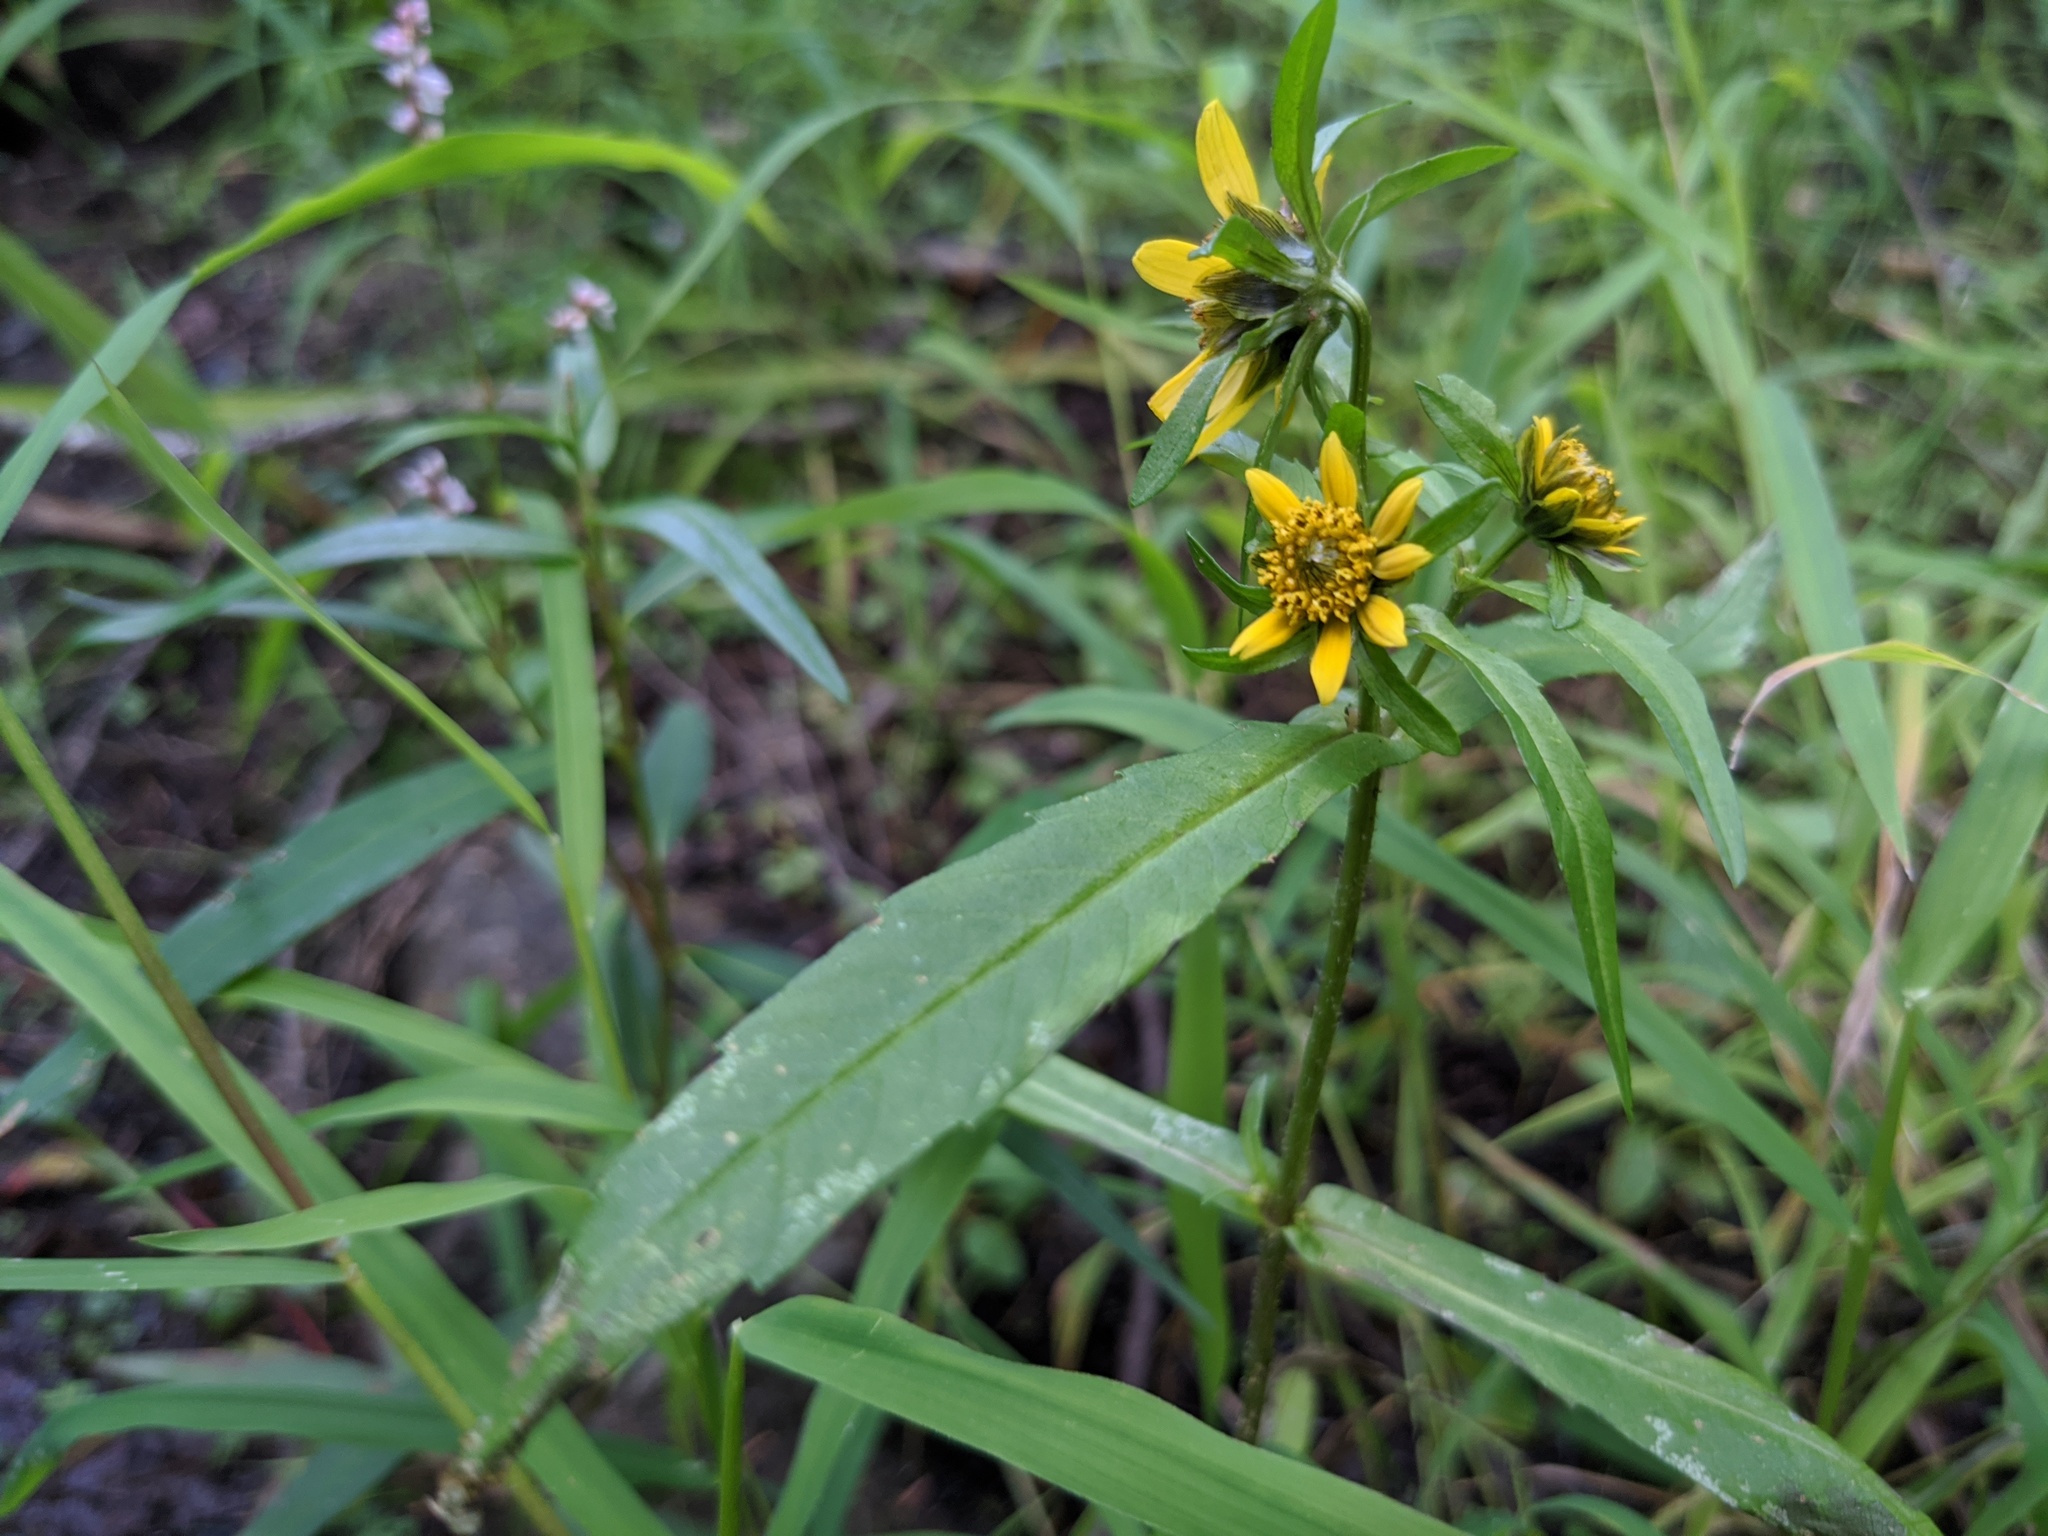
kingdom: Plantae
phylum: Tracheophyta
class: Magnoliopsida
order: Asterales
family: Asteraceae
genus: Bidens
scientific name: Bidens cernua
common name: Nodding bur-marigold
